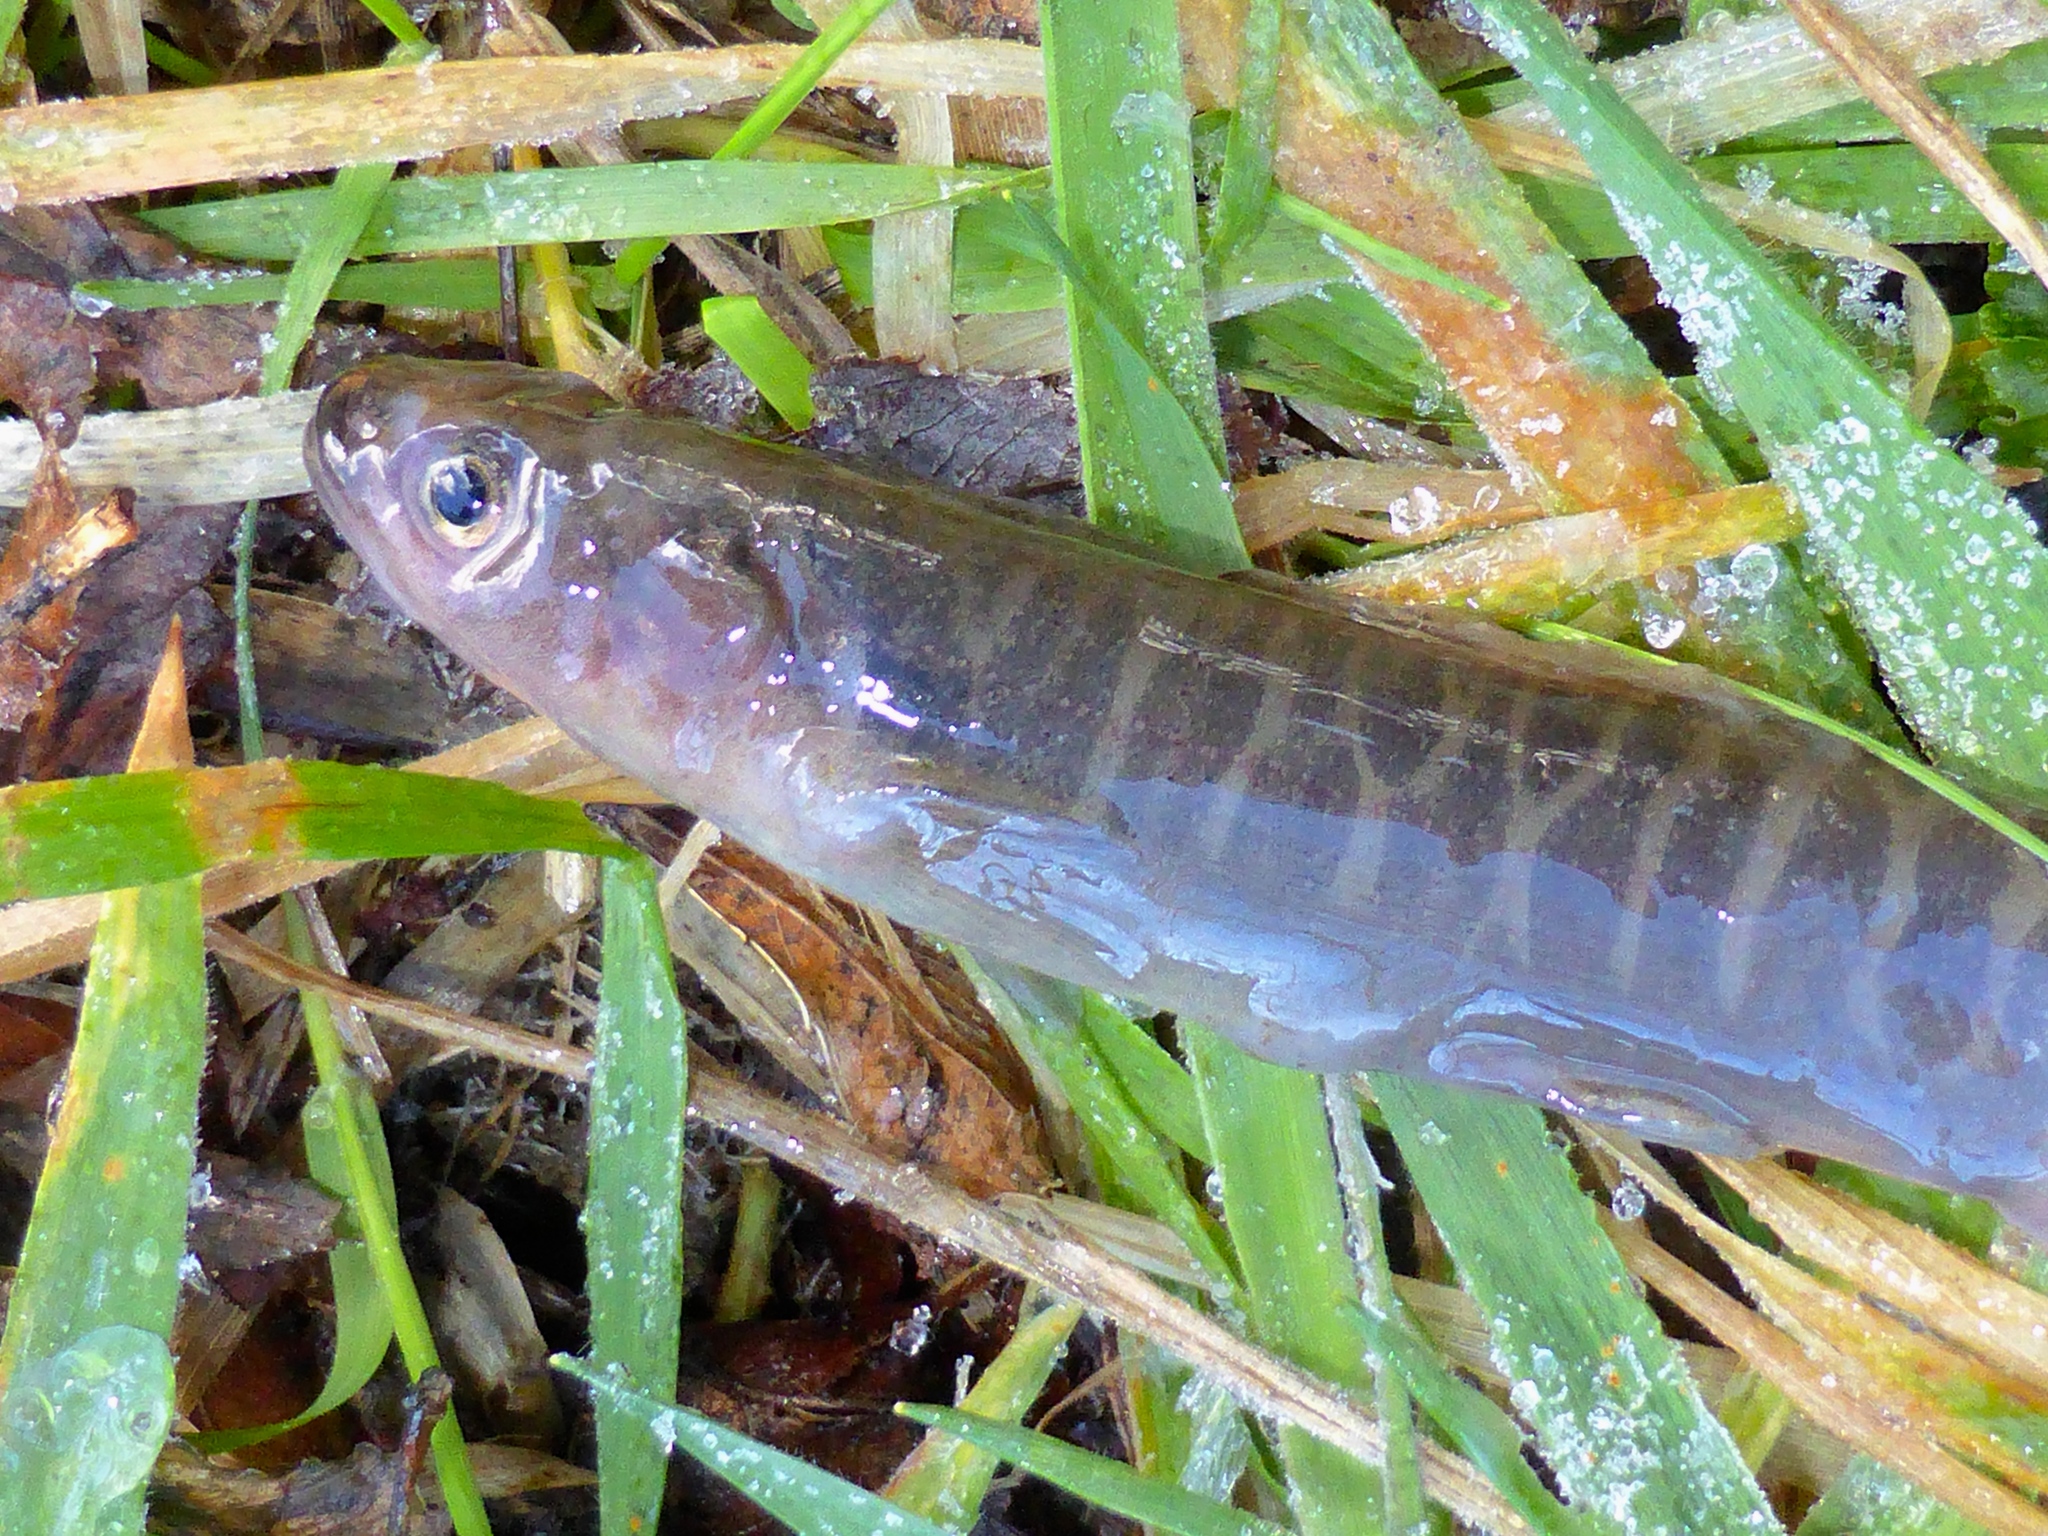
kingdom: Animalia
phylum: Chordata
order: Osmeriformes
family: Galaxiidae
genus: Galaxias
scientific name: Galaxias fasciatus
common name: Banded kokopu
